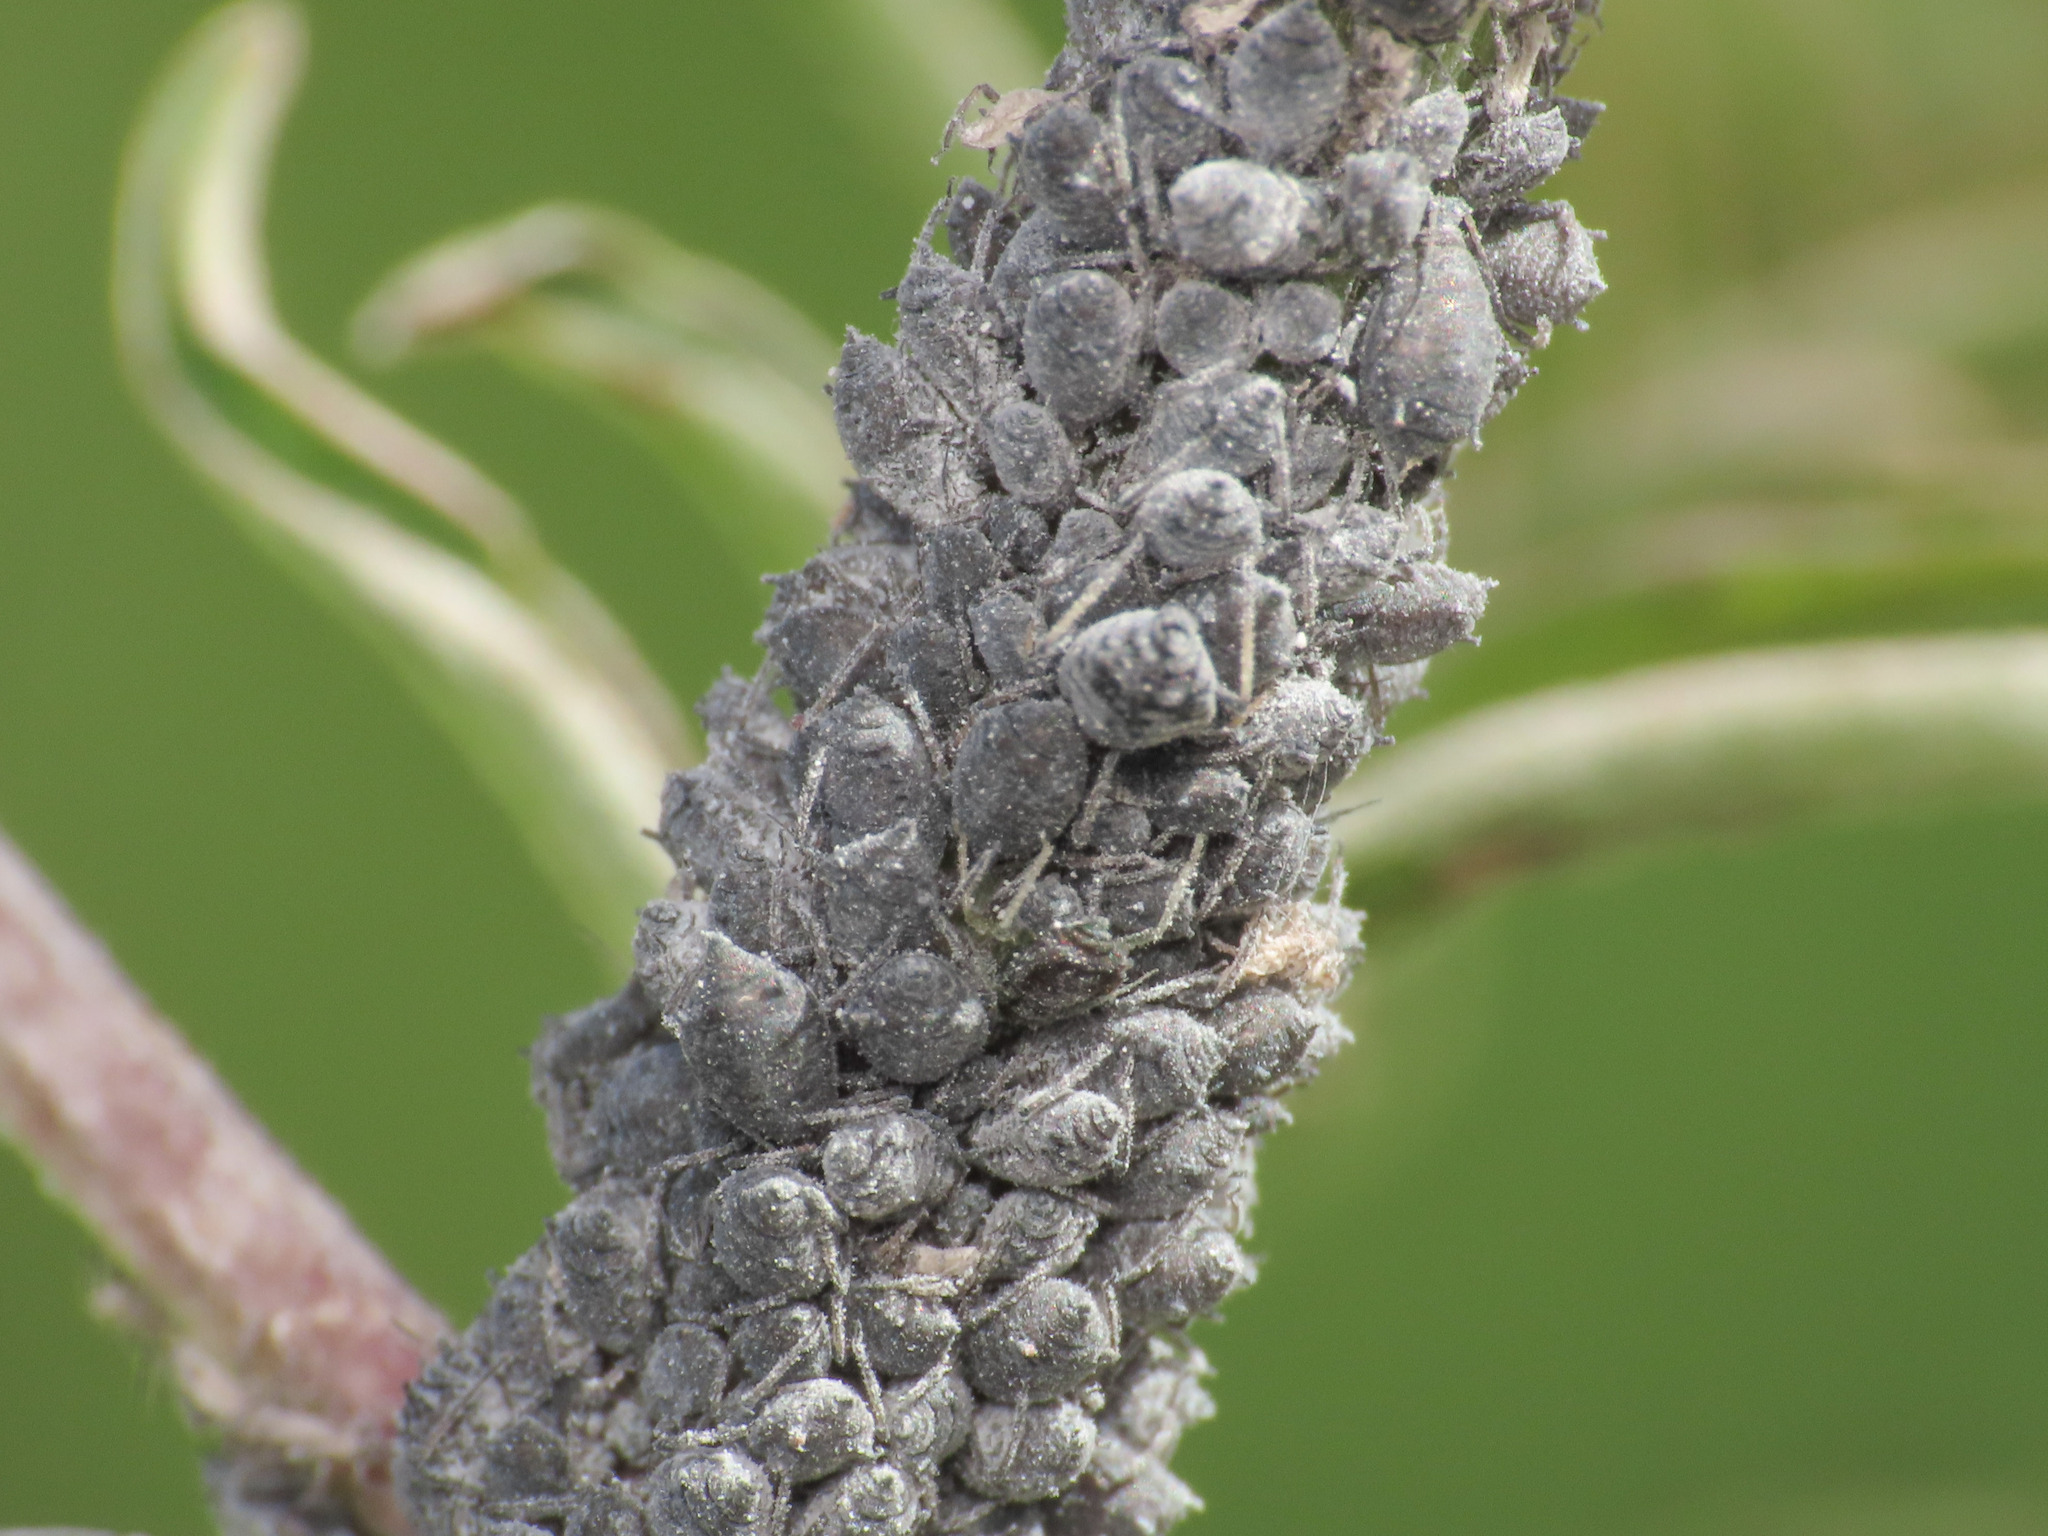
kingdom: Animalia
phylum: Arthropoda
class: Insecta
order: Hemiptera
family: Aphididae
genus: Aphis
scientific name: Aphis craccae
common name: Aphid
